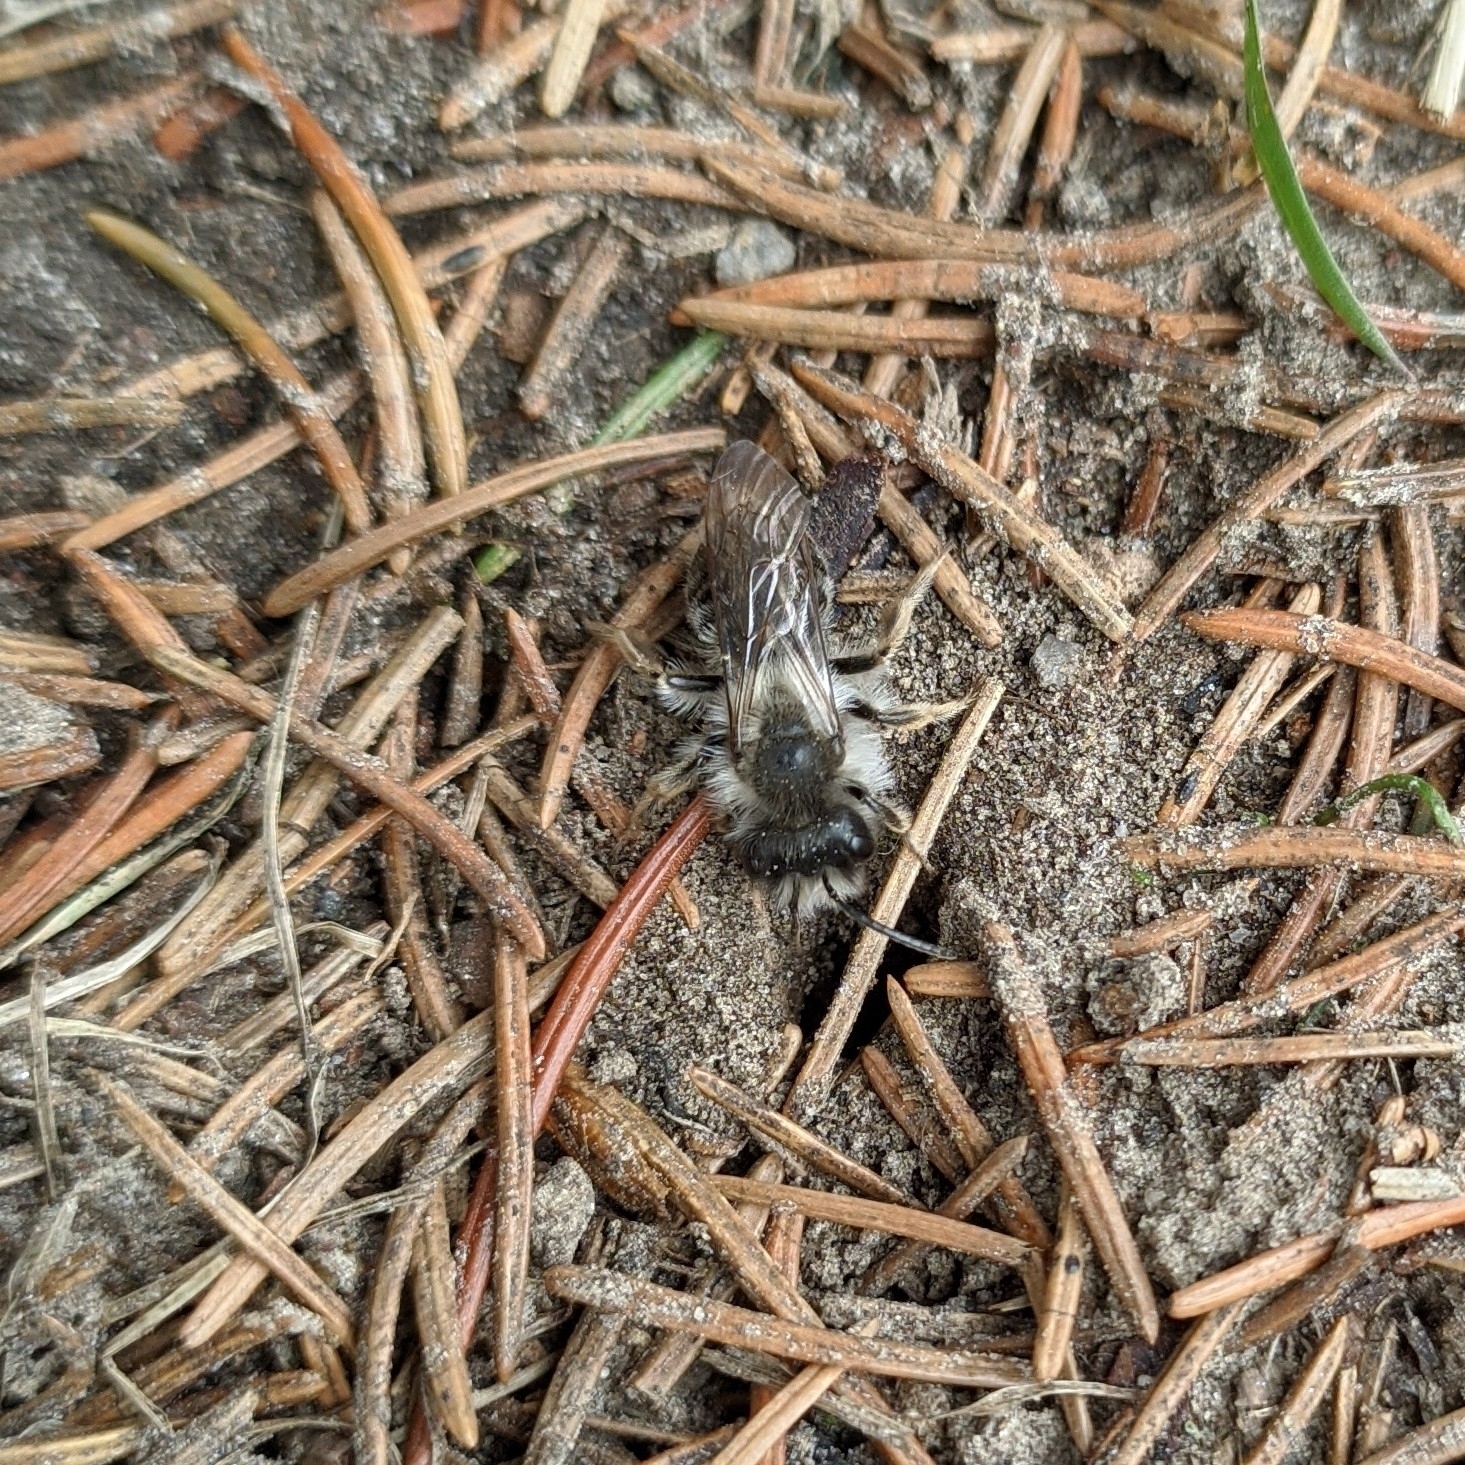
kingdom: Animalia
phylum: Arthropoda
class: Insecta
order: Hymenoptera
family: Andrenidae
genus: Andrena
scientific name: Andrena vaga
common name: Grey-backed mining bee
